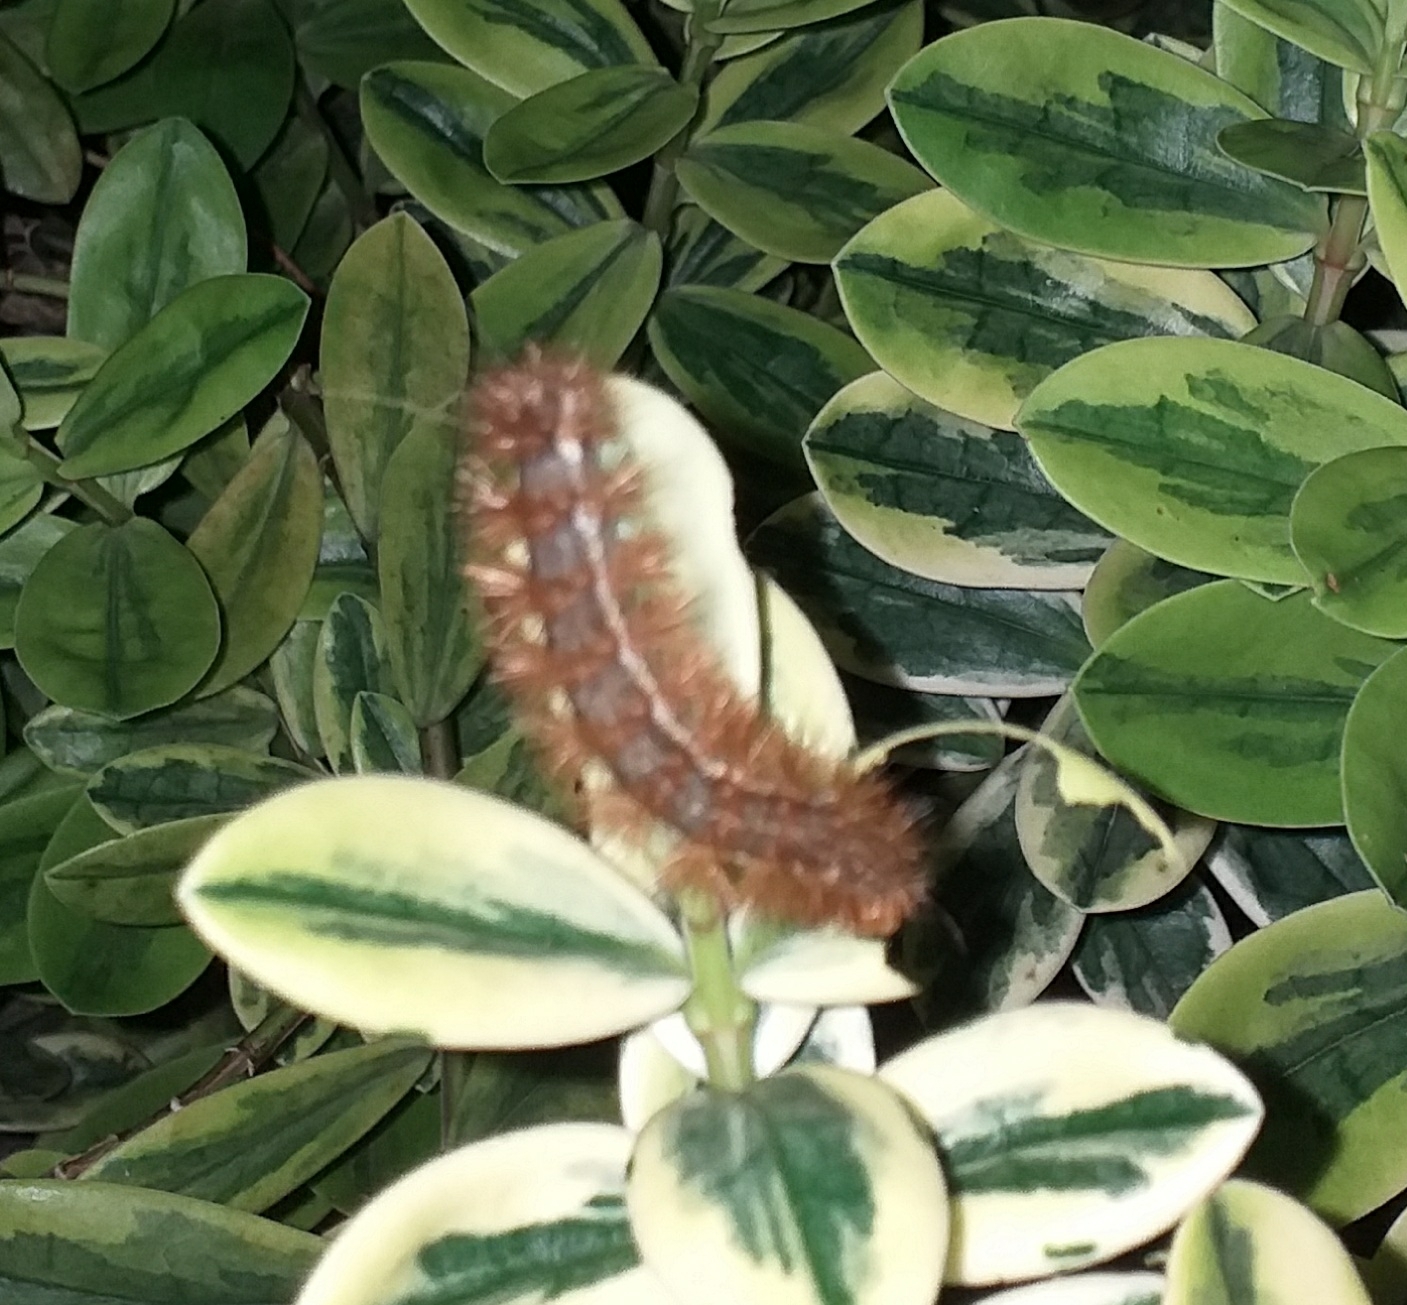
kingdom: Animalia
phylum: Arthropoda
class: Insecta
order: Lepidoptera
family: Erebidae
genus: Spilarctia
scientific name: Spilarctia lutea
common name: Buff ermine
